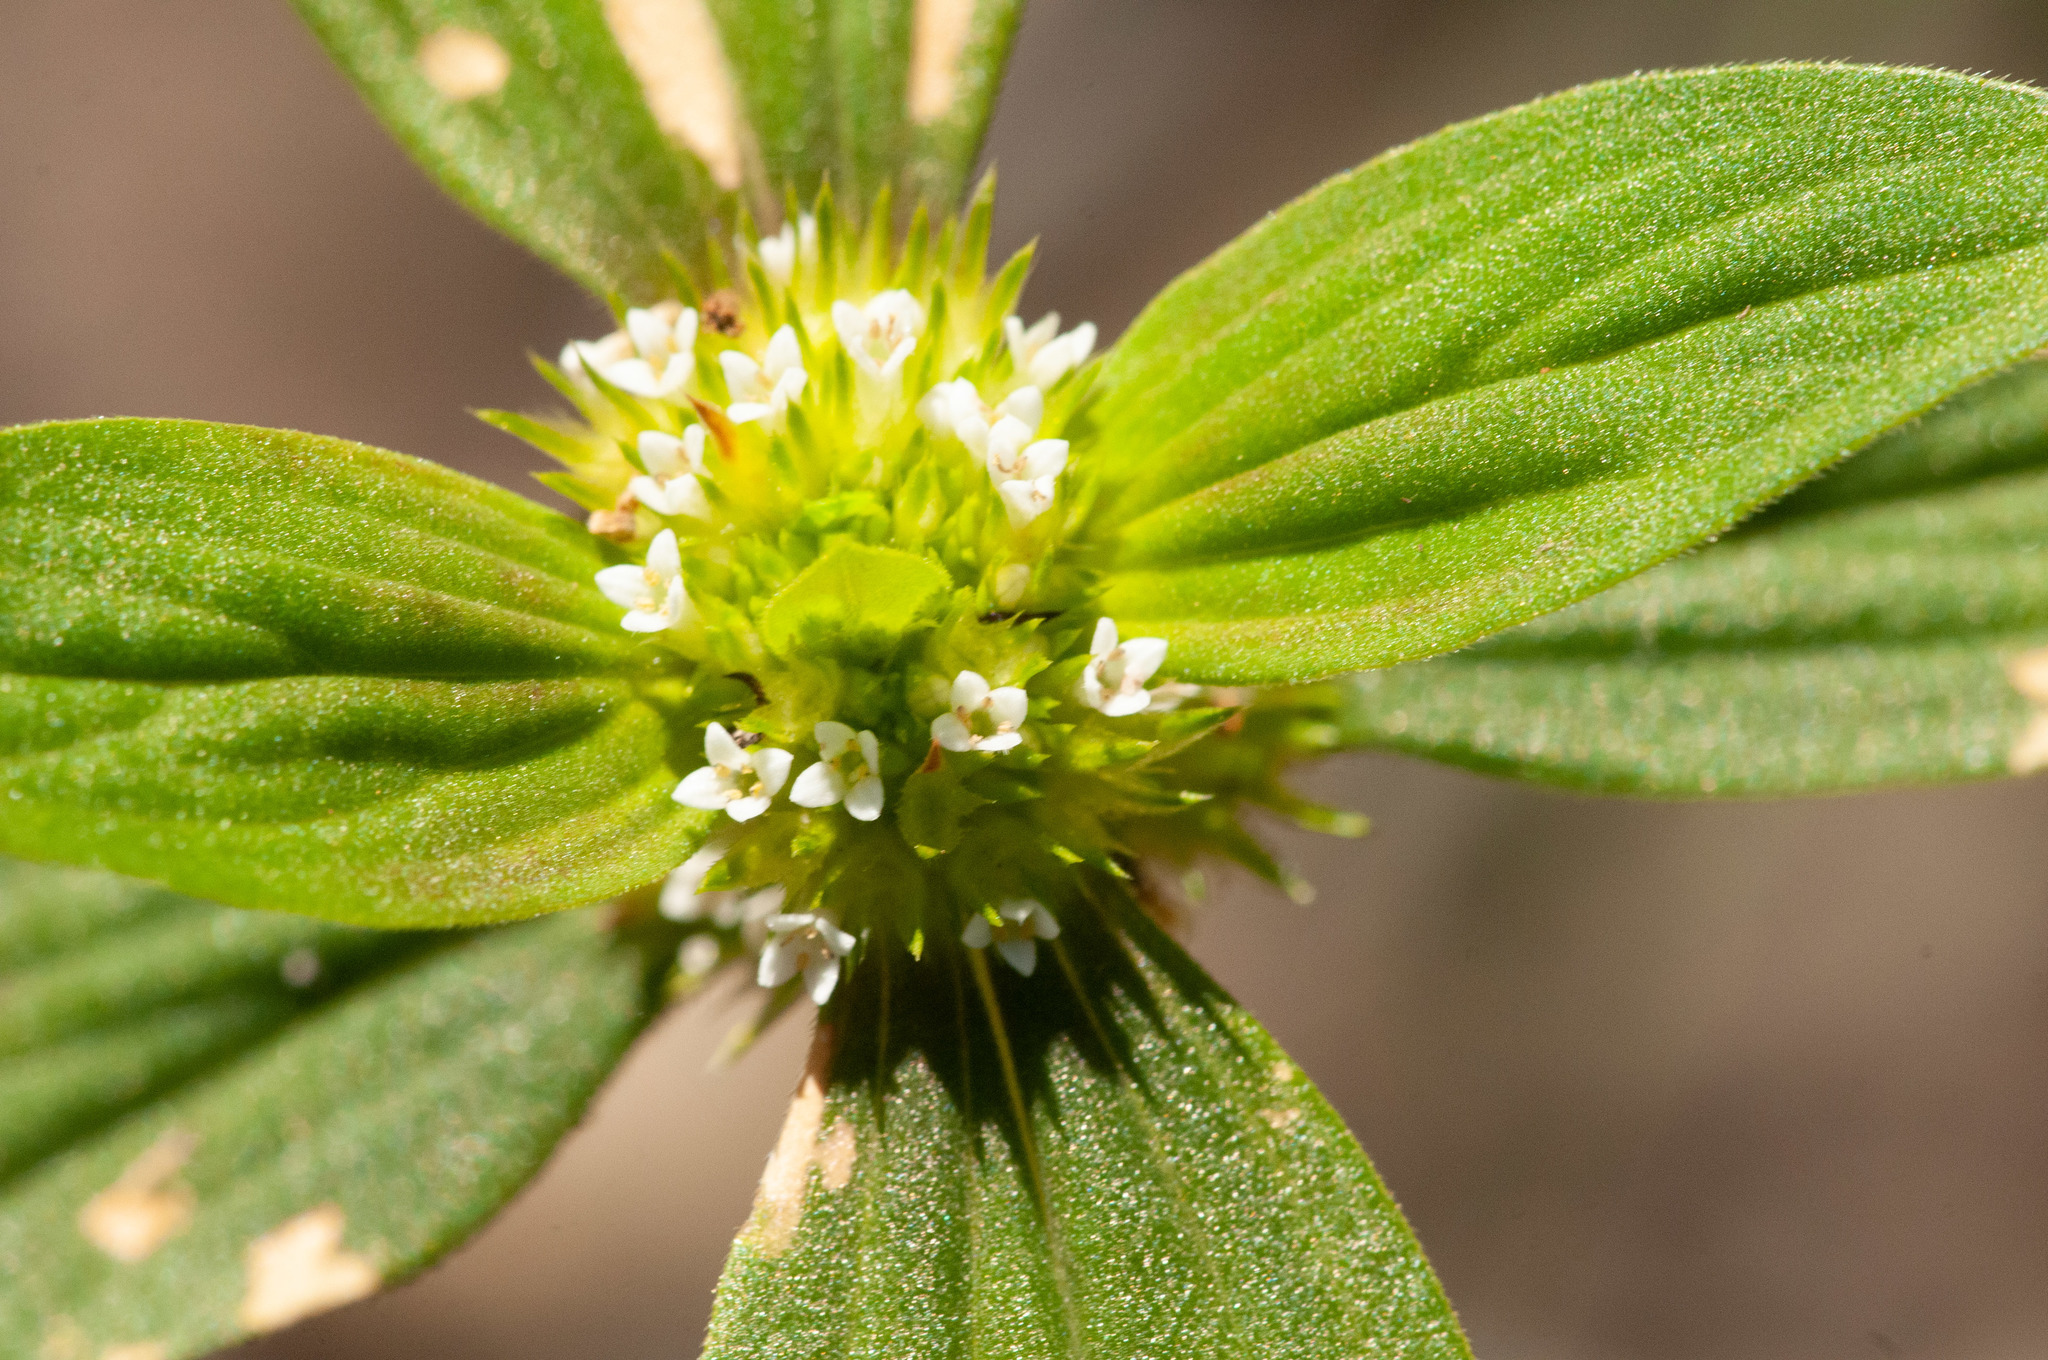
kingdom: Plantae
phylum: Tracheophyta
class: Magnoliopsida
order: Gentianales
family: Rubiaceae
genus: Mitracarpus
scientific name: Mitracarpus hirtus
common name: Tropical girdlepod
